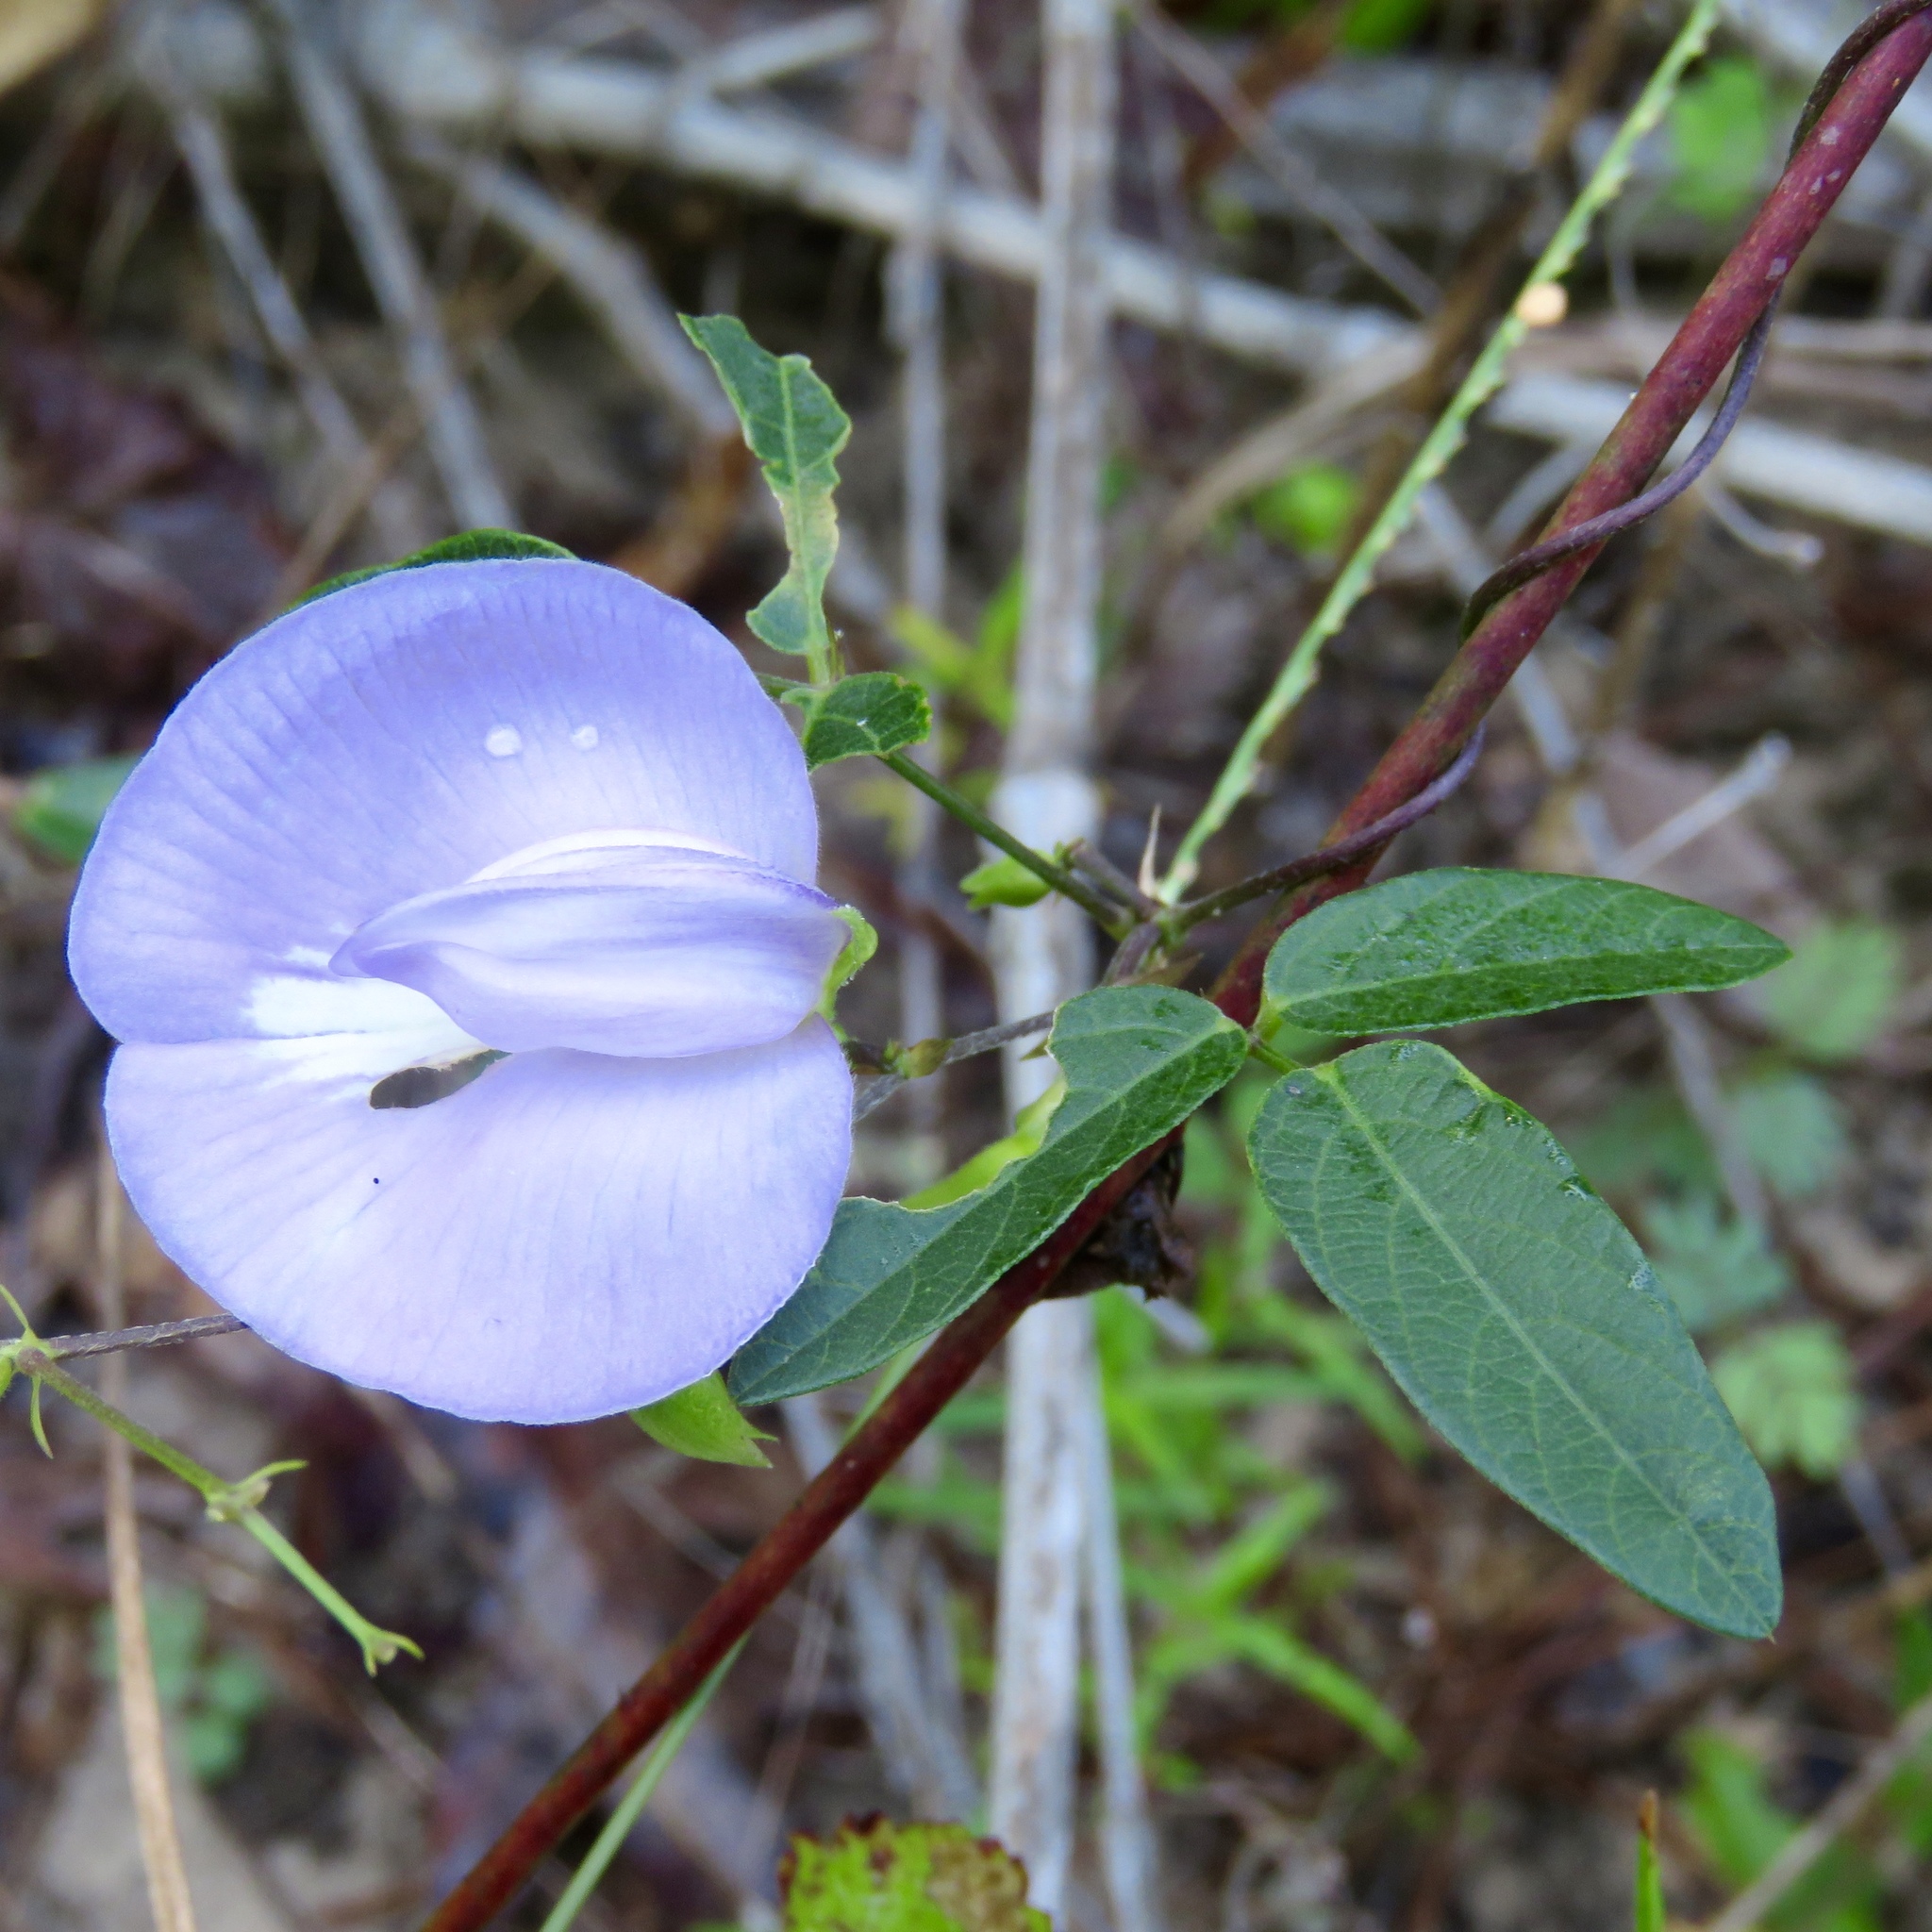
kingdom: Plantae
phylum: Tracheophyta
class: Magnoliopsida
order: Fabales
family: Fabaceae
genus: Centrosema
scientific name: Centrosema virginianum
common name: Butterfly-pea
